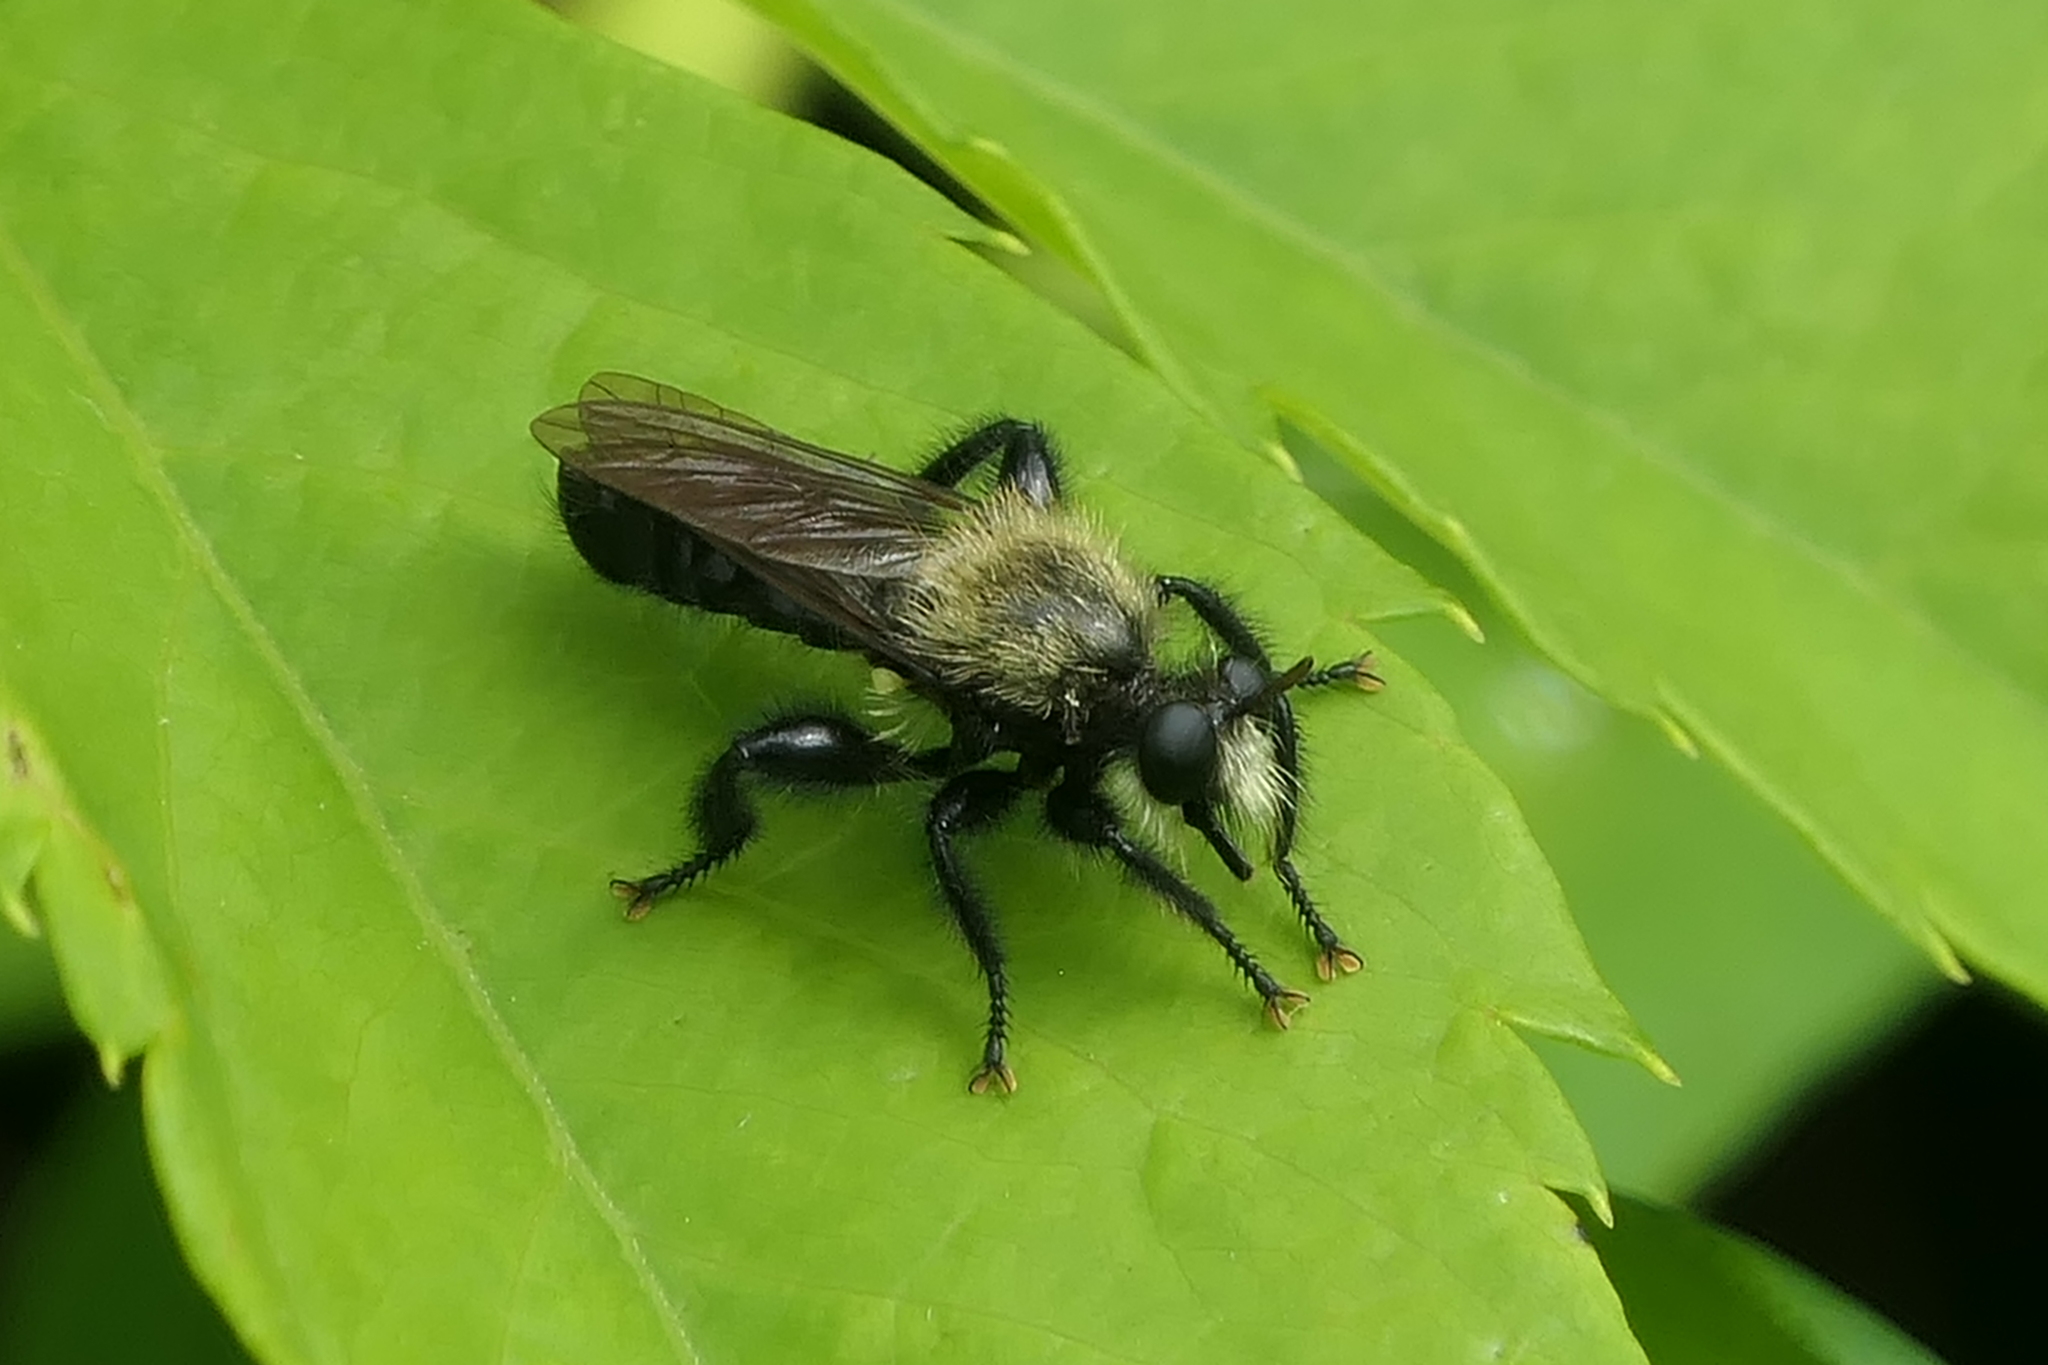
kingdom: Animalia
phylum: Arthropoda
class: Insecta
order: Diptera
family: Asilidae
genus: Laphria
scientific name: Laphria flavicollis
